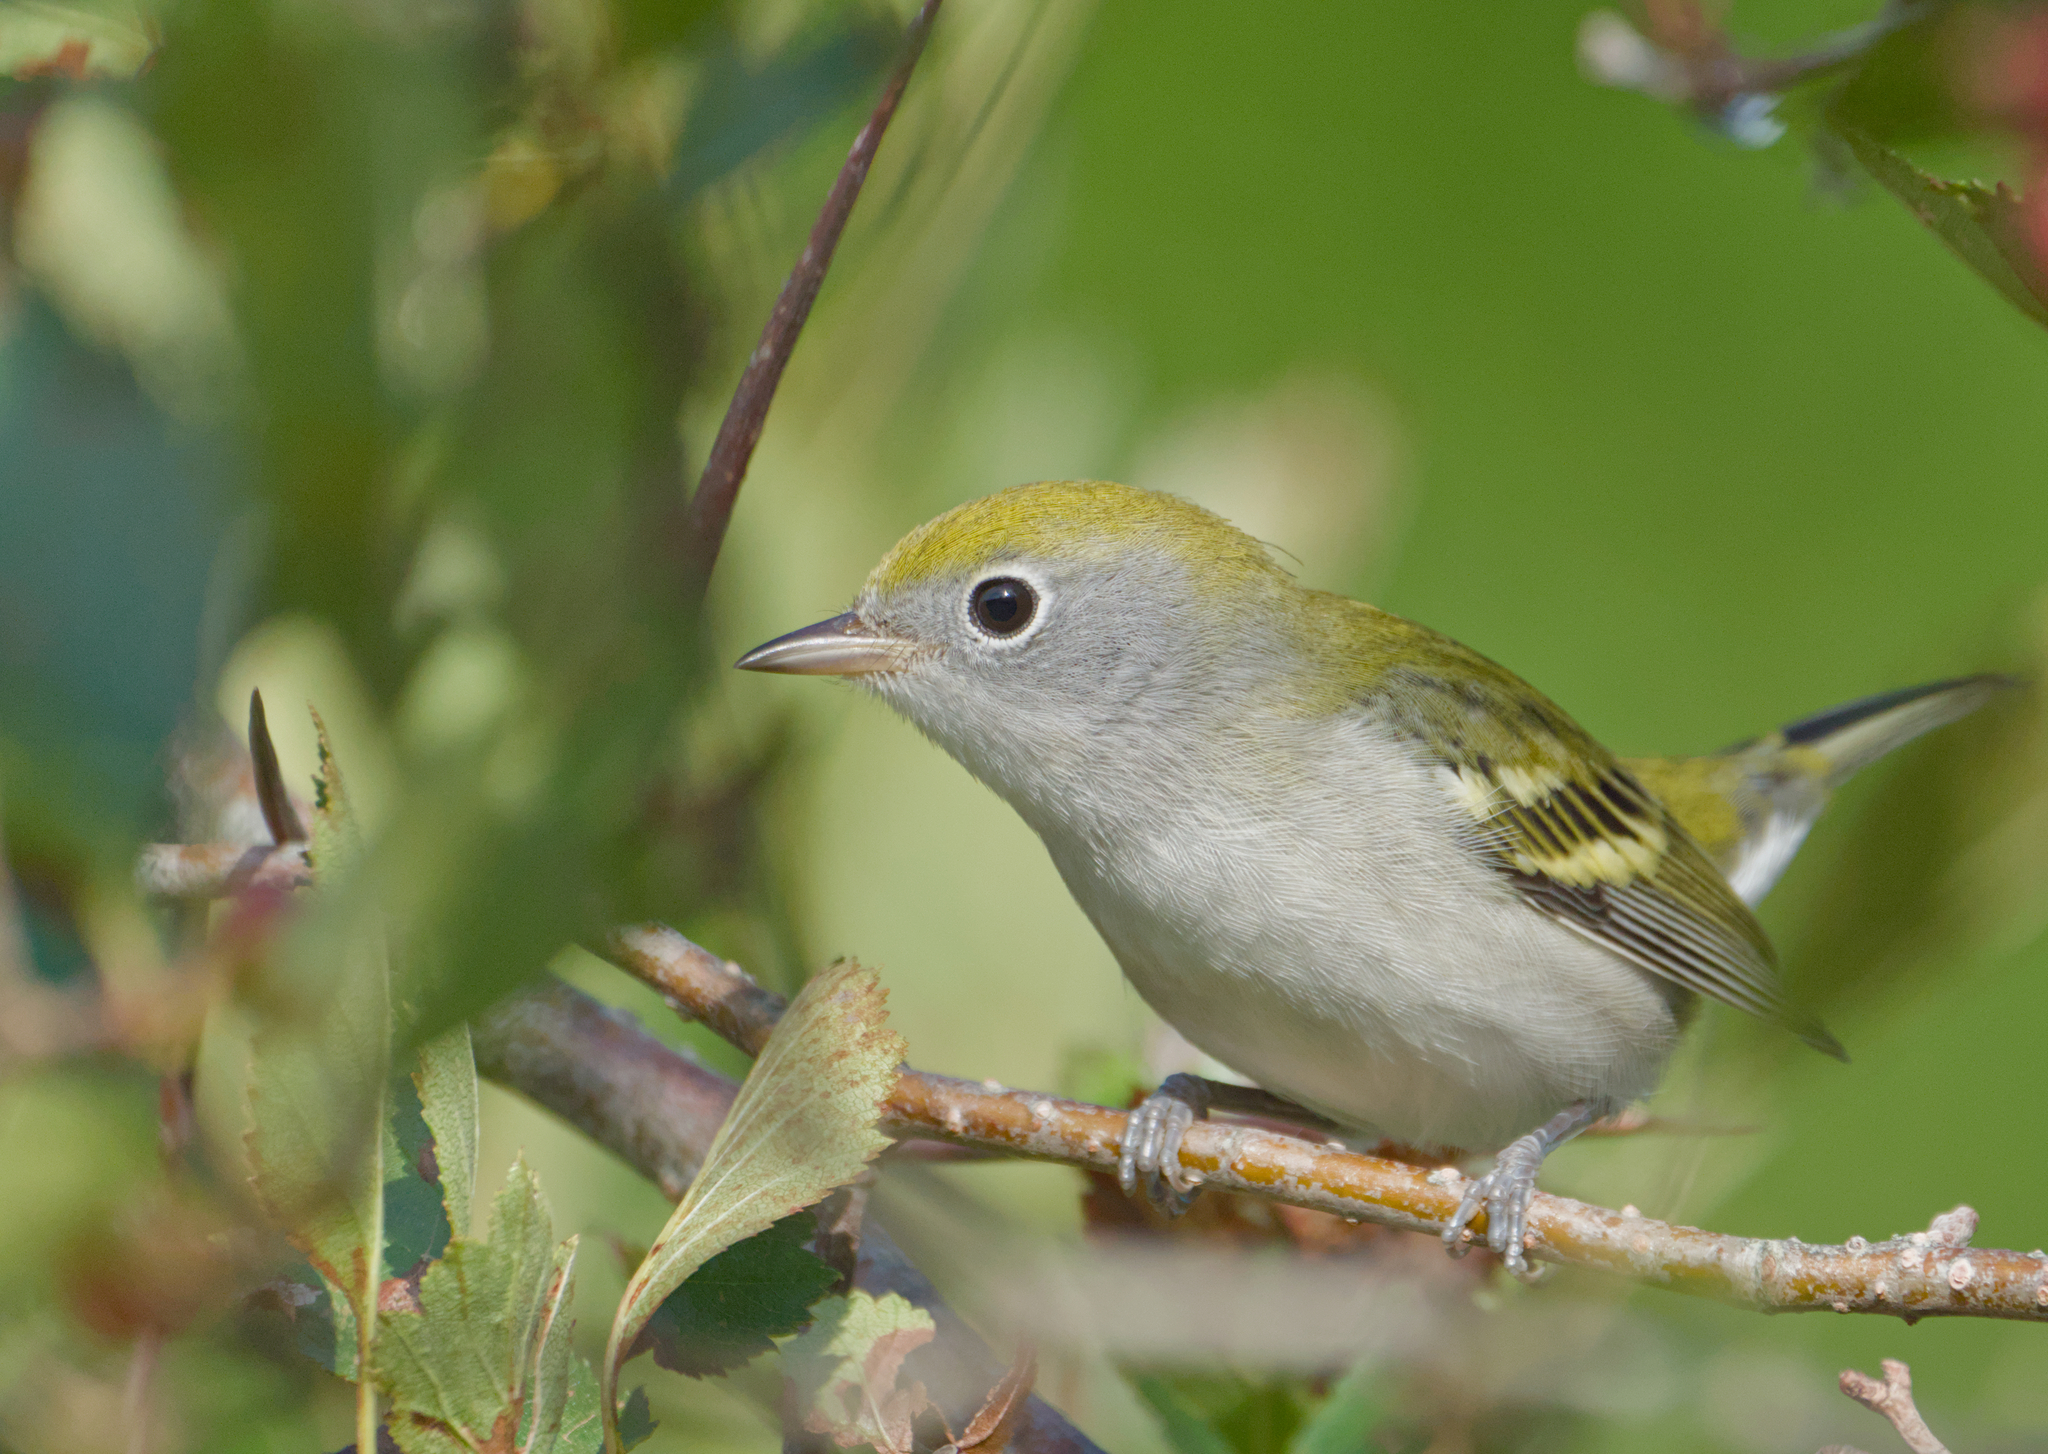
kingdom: Animalia
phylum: Chordata
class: Aves
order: Passeriformes
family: Parulidae
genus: Setophaga
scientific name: Setophaga pensylvanica
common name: Chestnut-sided warbler
